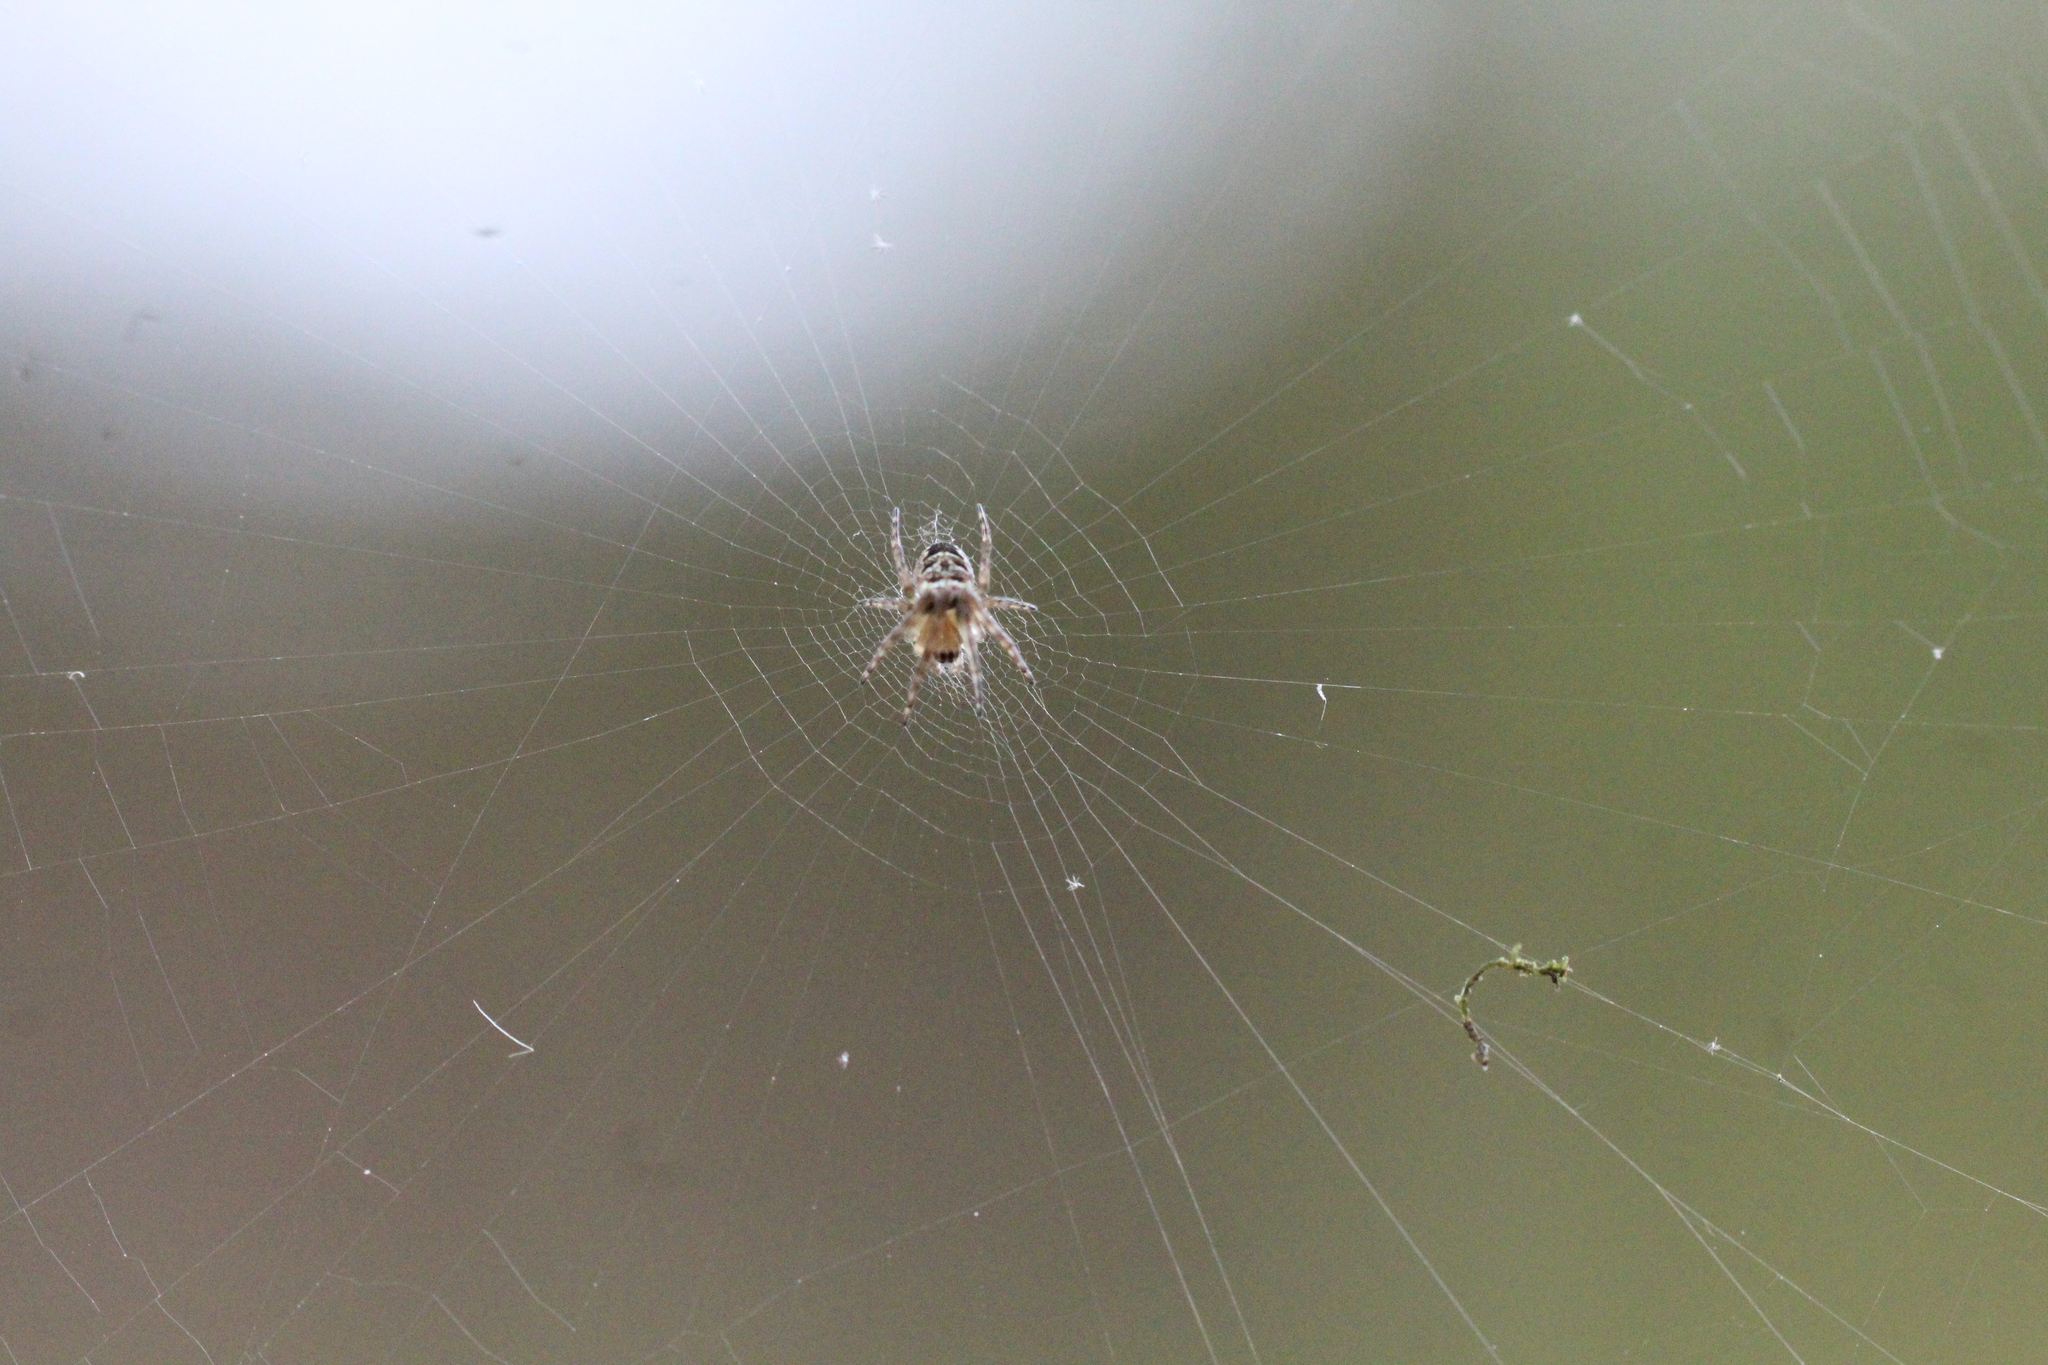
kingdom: Animalia
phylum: Arthropoda
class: Arachnida
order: Araneae
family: Araneidae
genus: Zilla
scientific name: Zilla diodia
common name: Zilla diodia
